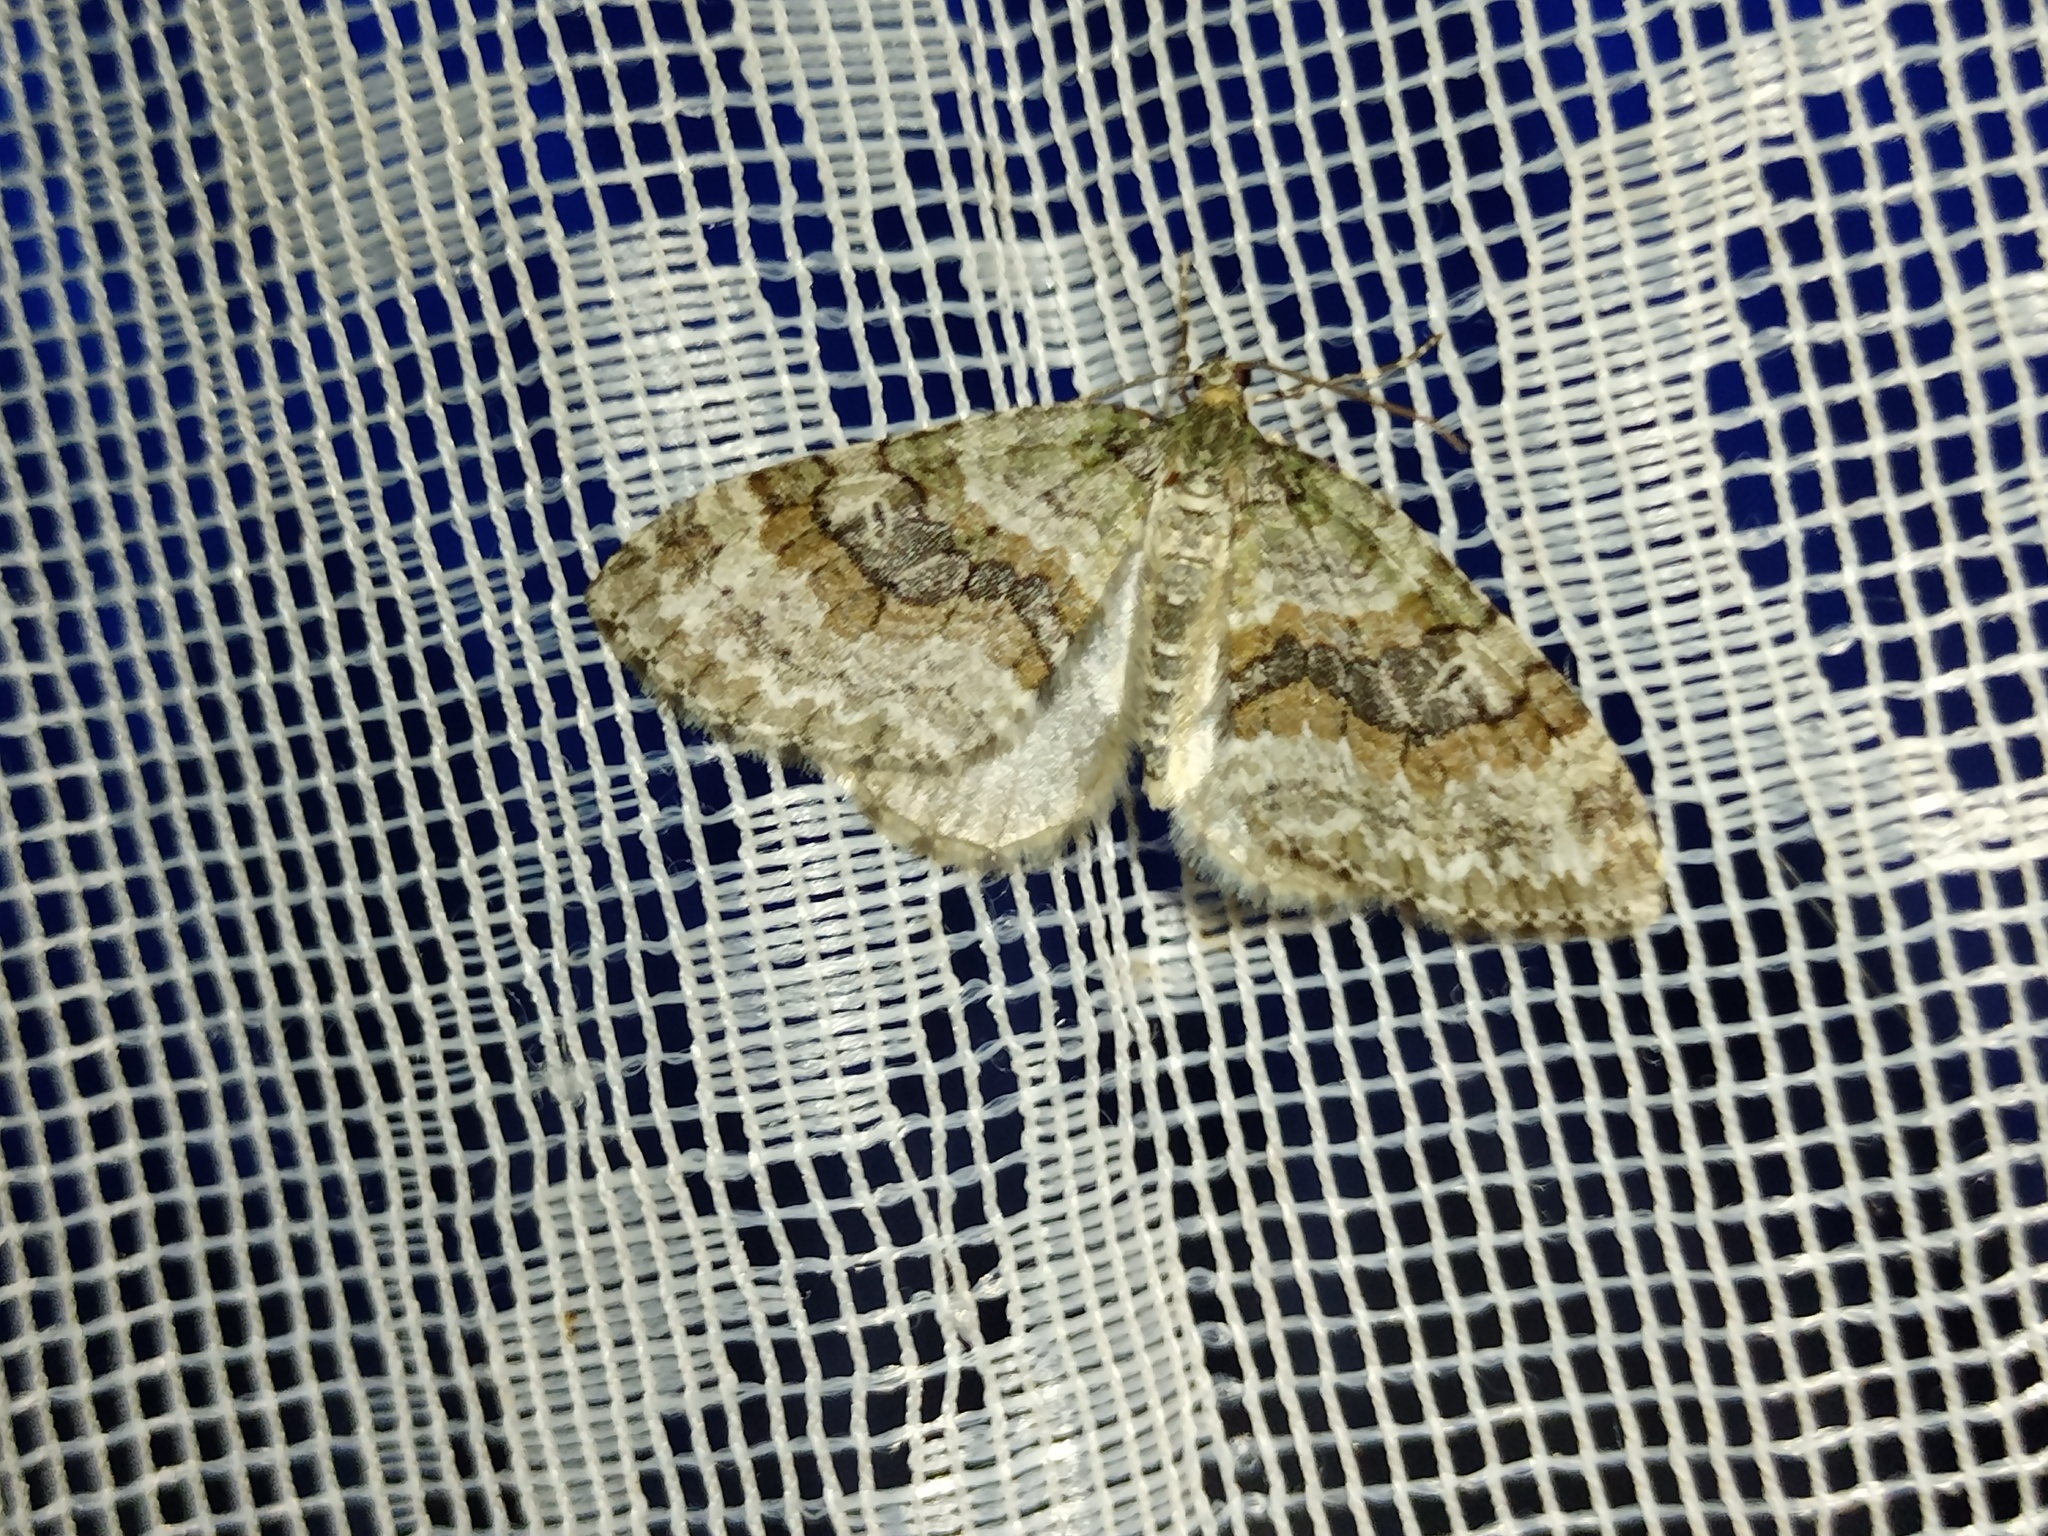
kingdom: Animalia
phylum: Arthropoda
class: Insecta
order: Lepidoptera
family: Geometridae
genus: Nothocasis
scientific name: Nothocasis sertata
